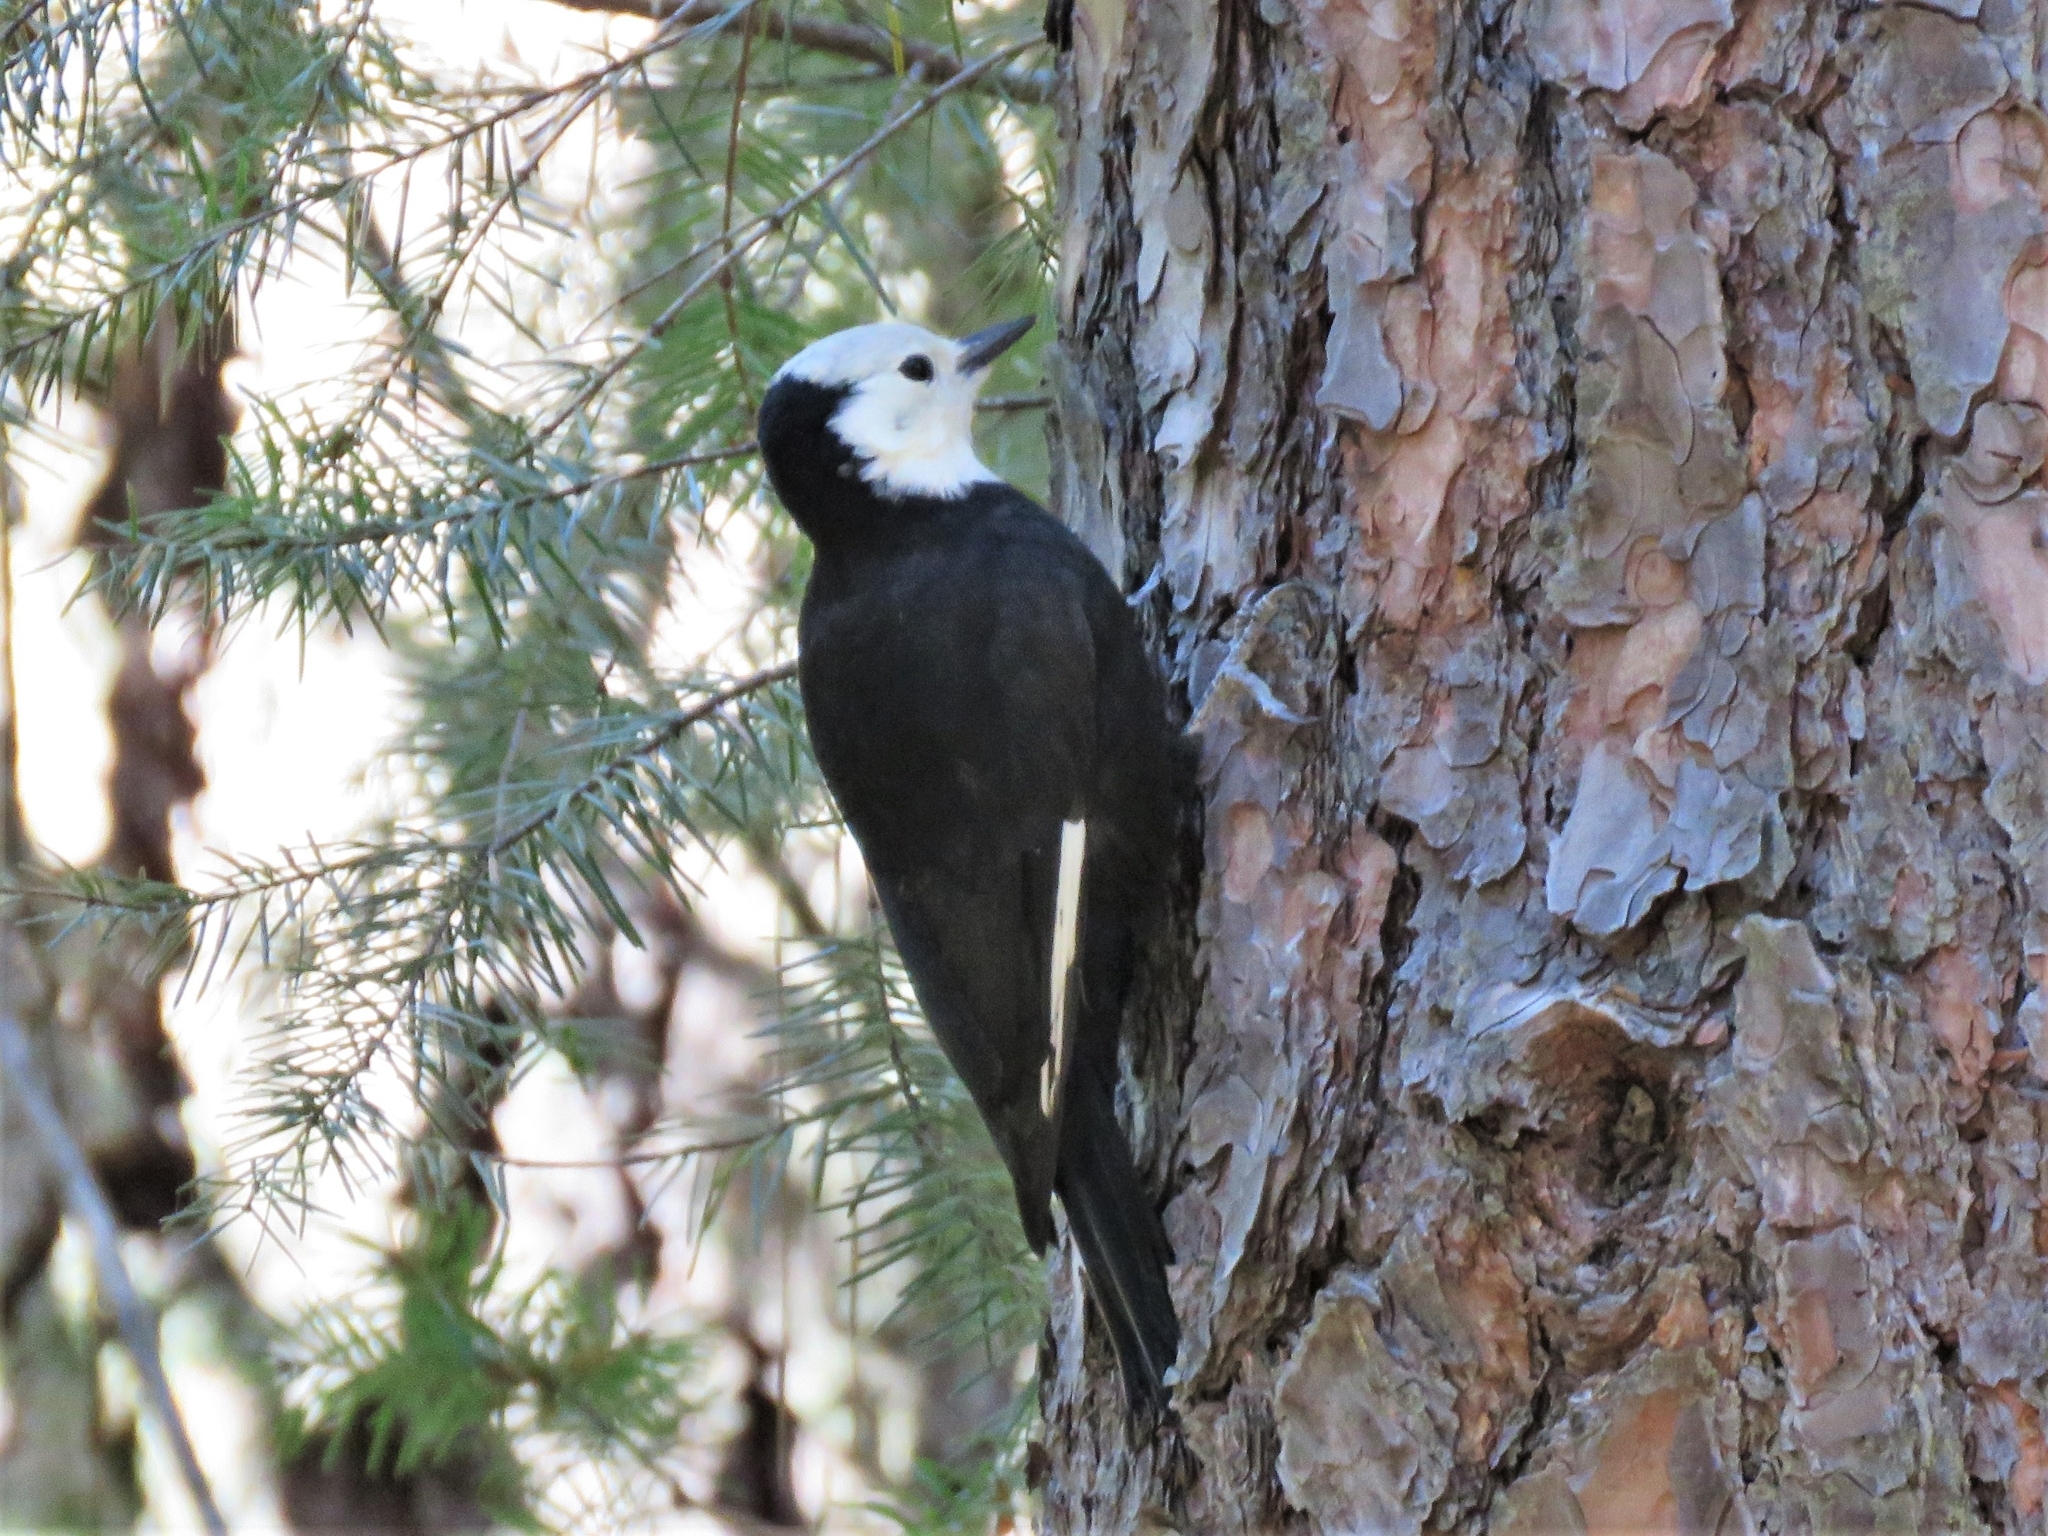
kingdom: Animalia
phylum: Chordata
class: Aves
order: Piciformes
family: Picidae
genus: Leuconotopicus
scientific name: Leuconotopicus albolarvatus
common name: White-headed woodpecker
